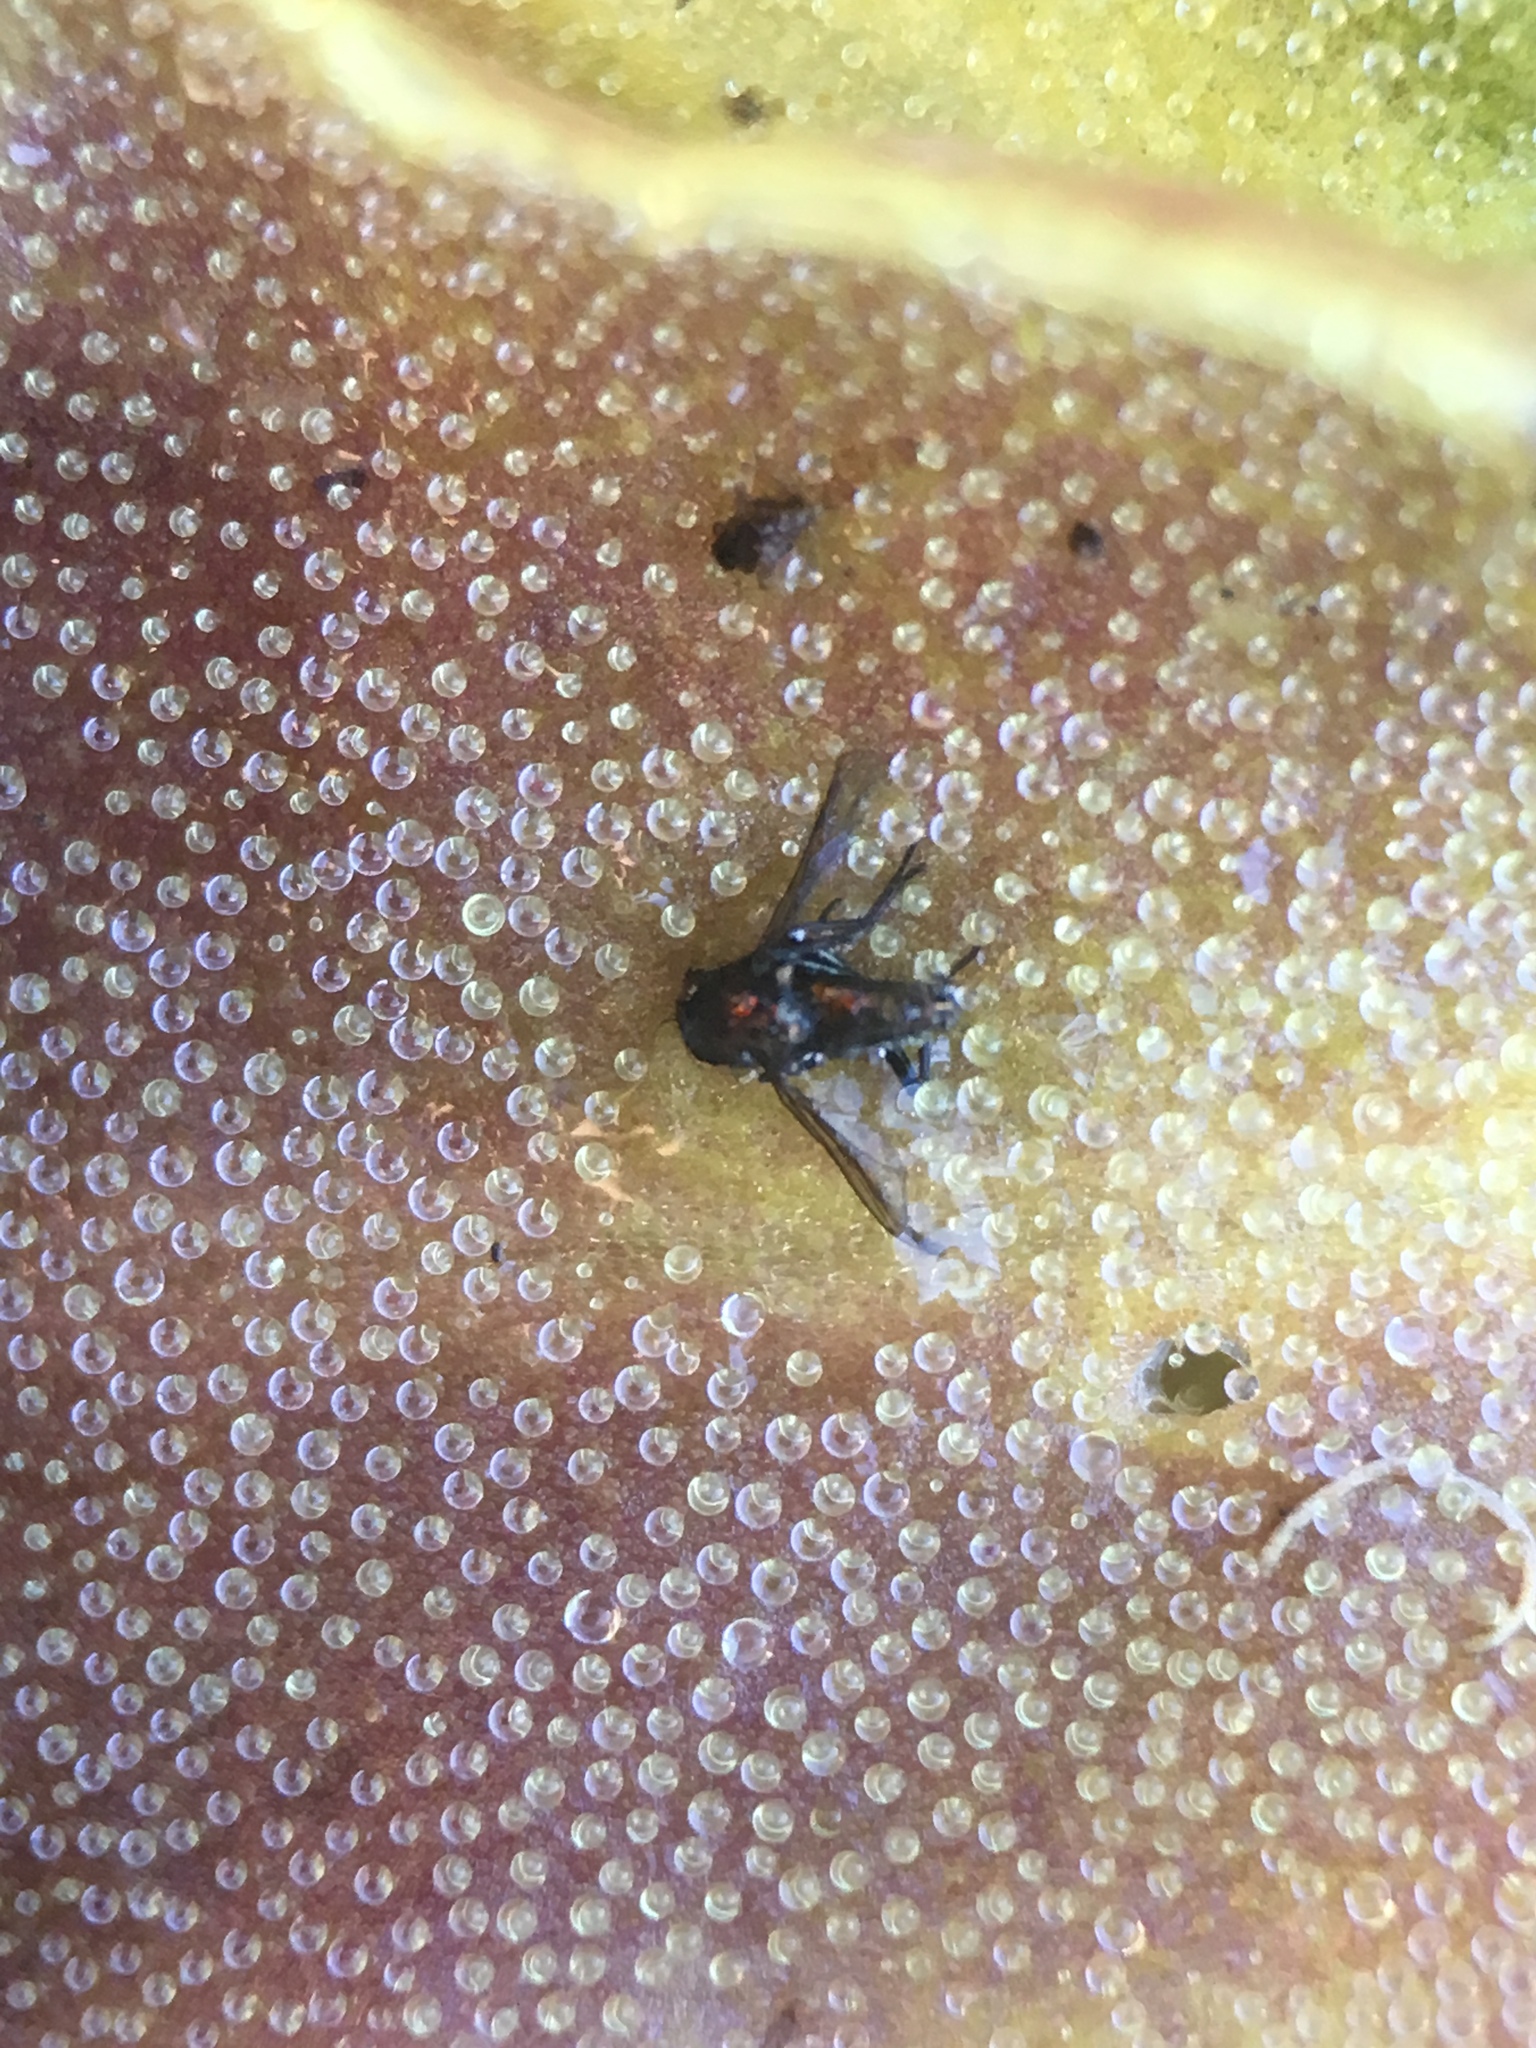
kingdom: Plantae
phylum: Tracheophyta
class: Magnoliopsida
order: Lamiales
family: Lentibulariaceae
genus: Pinguicula
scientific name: Pinguicula macroceras
